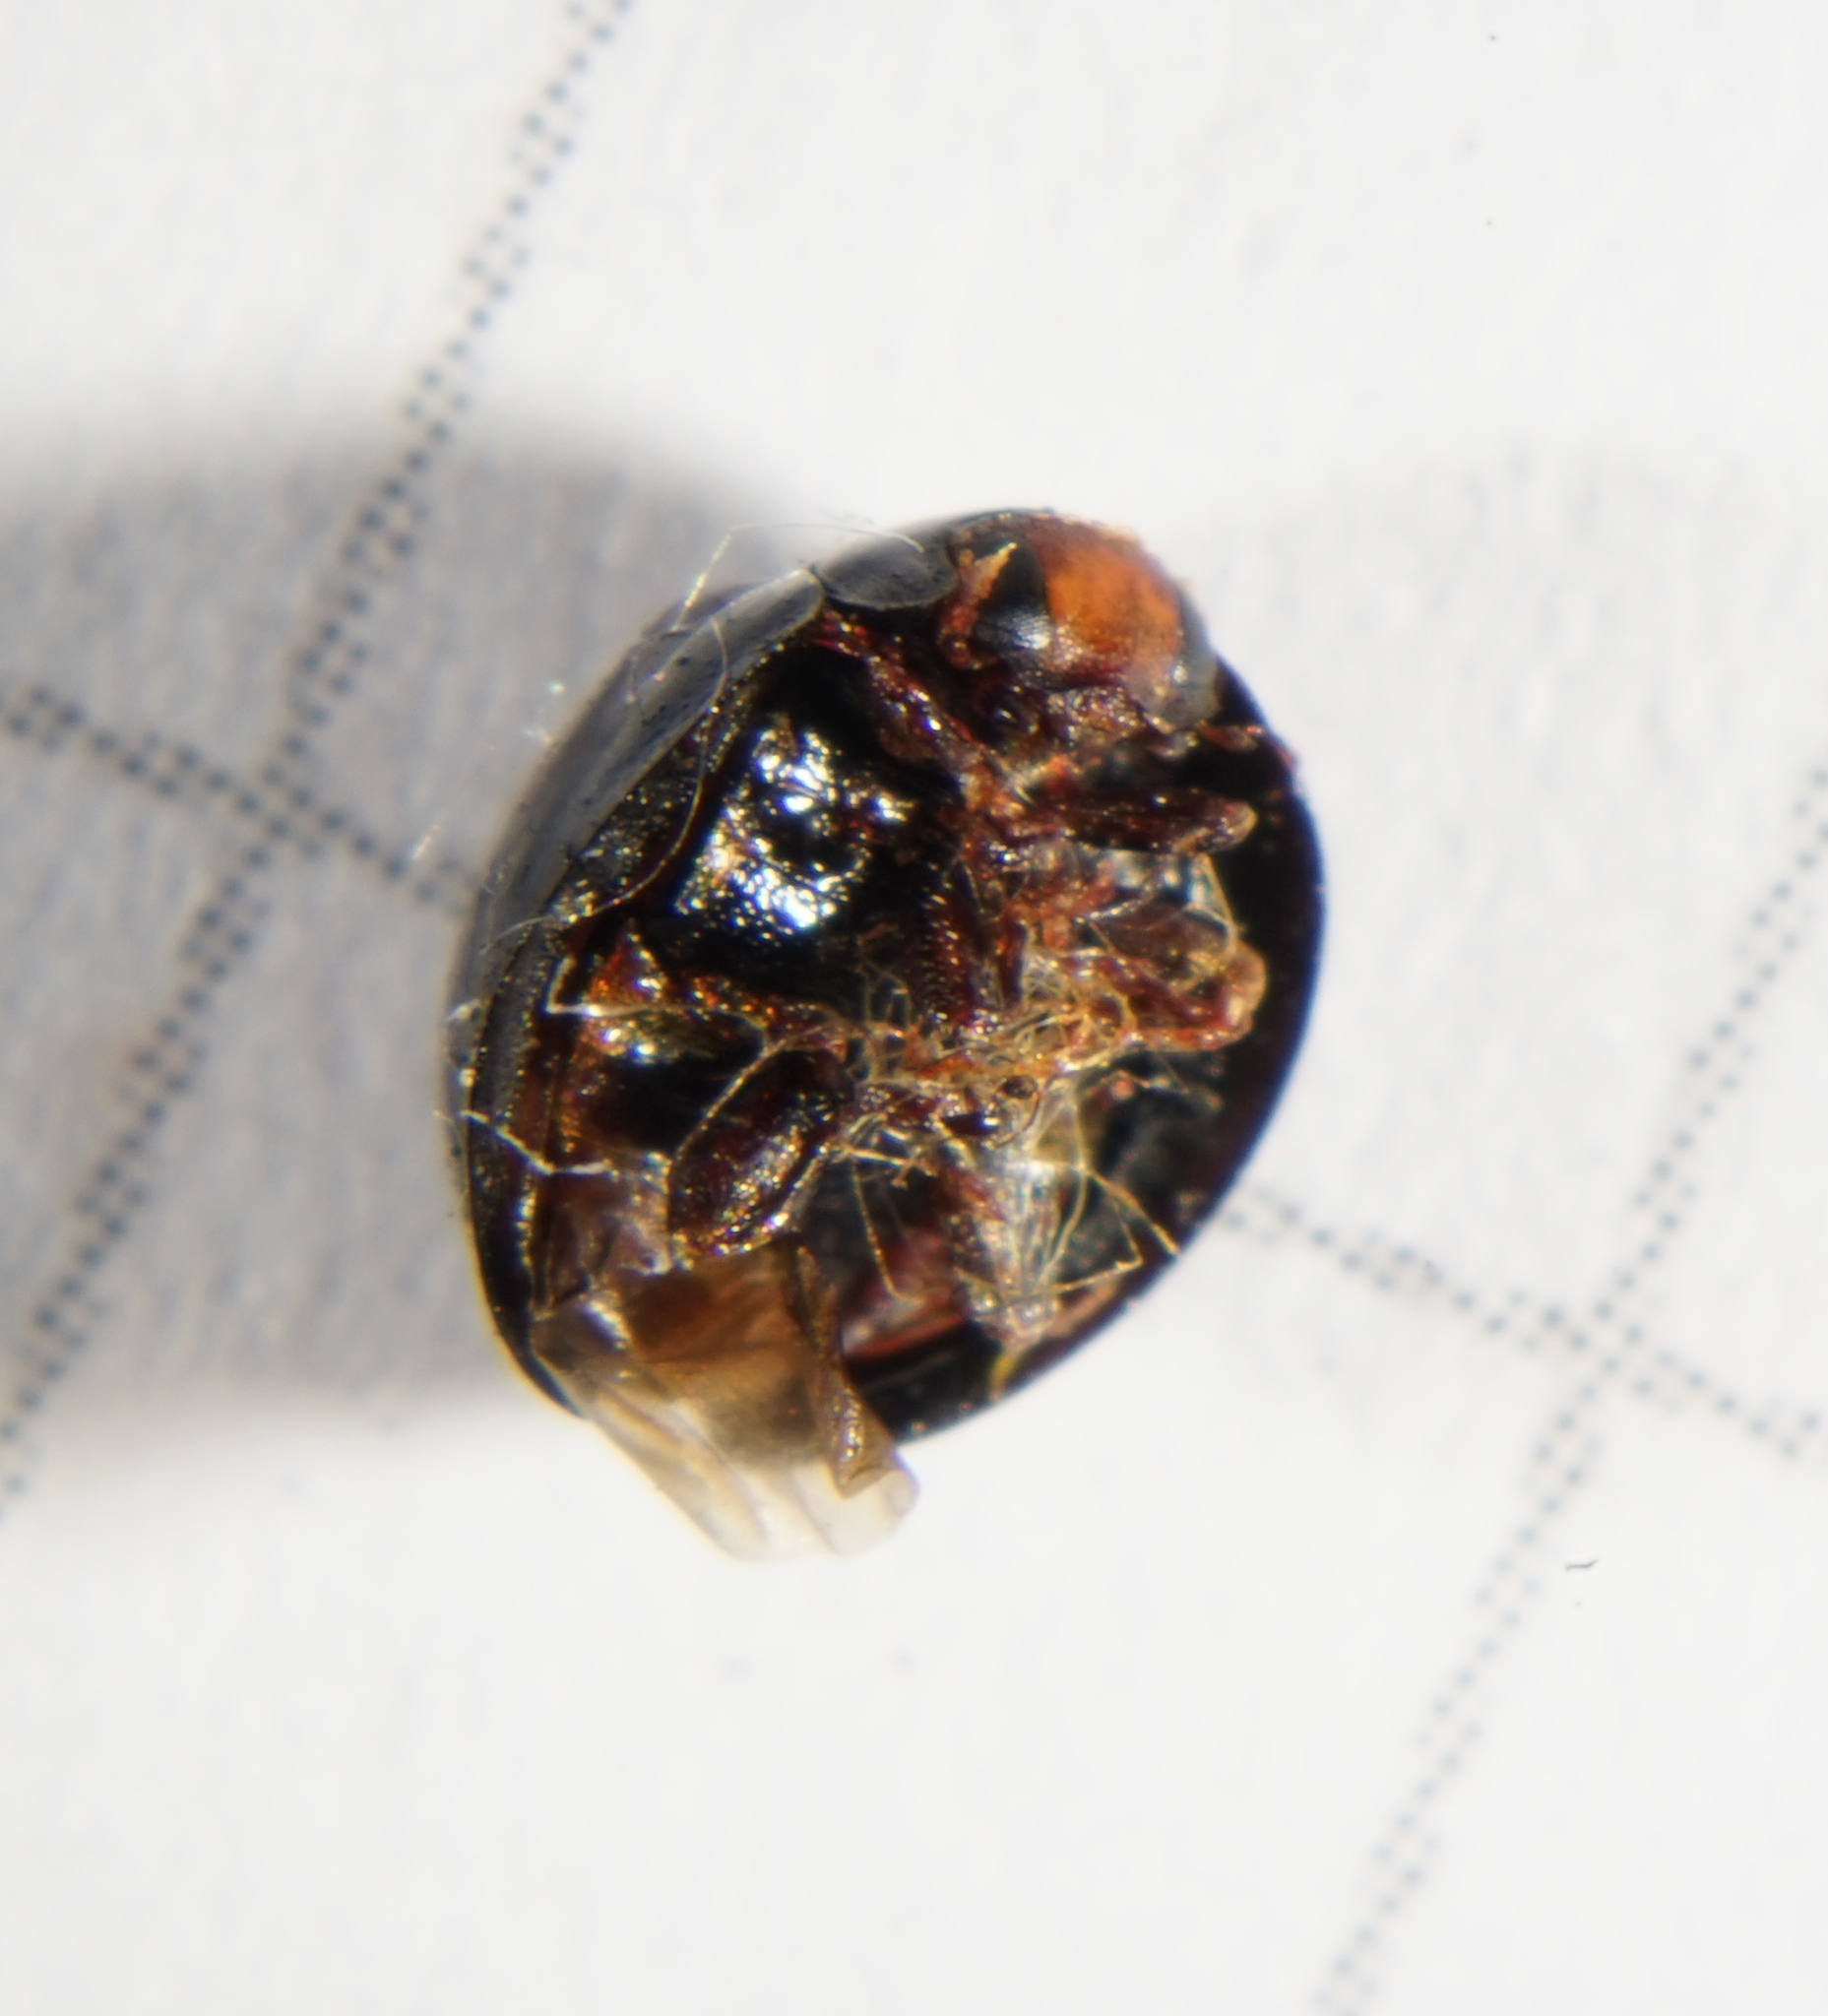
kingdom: Animalia
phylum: Arthropoda
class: Insecta
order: Coleoptera
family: Coccinellidae
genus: Chilocorus
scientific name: Chilocorus bipustulatus
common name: Heather ladybird
